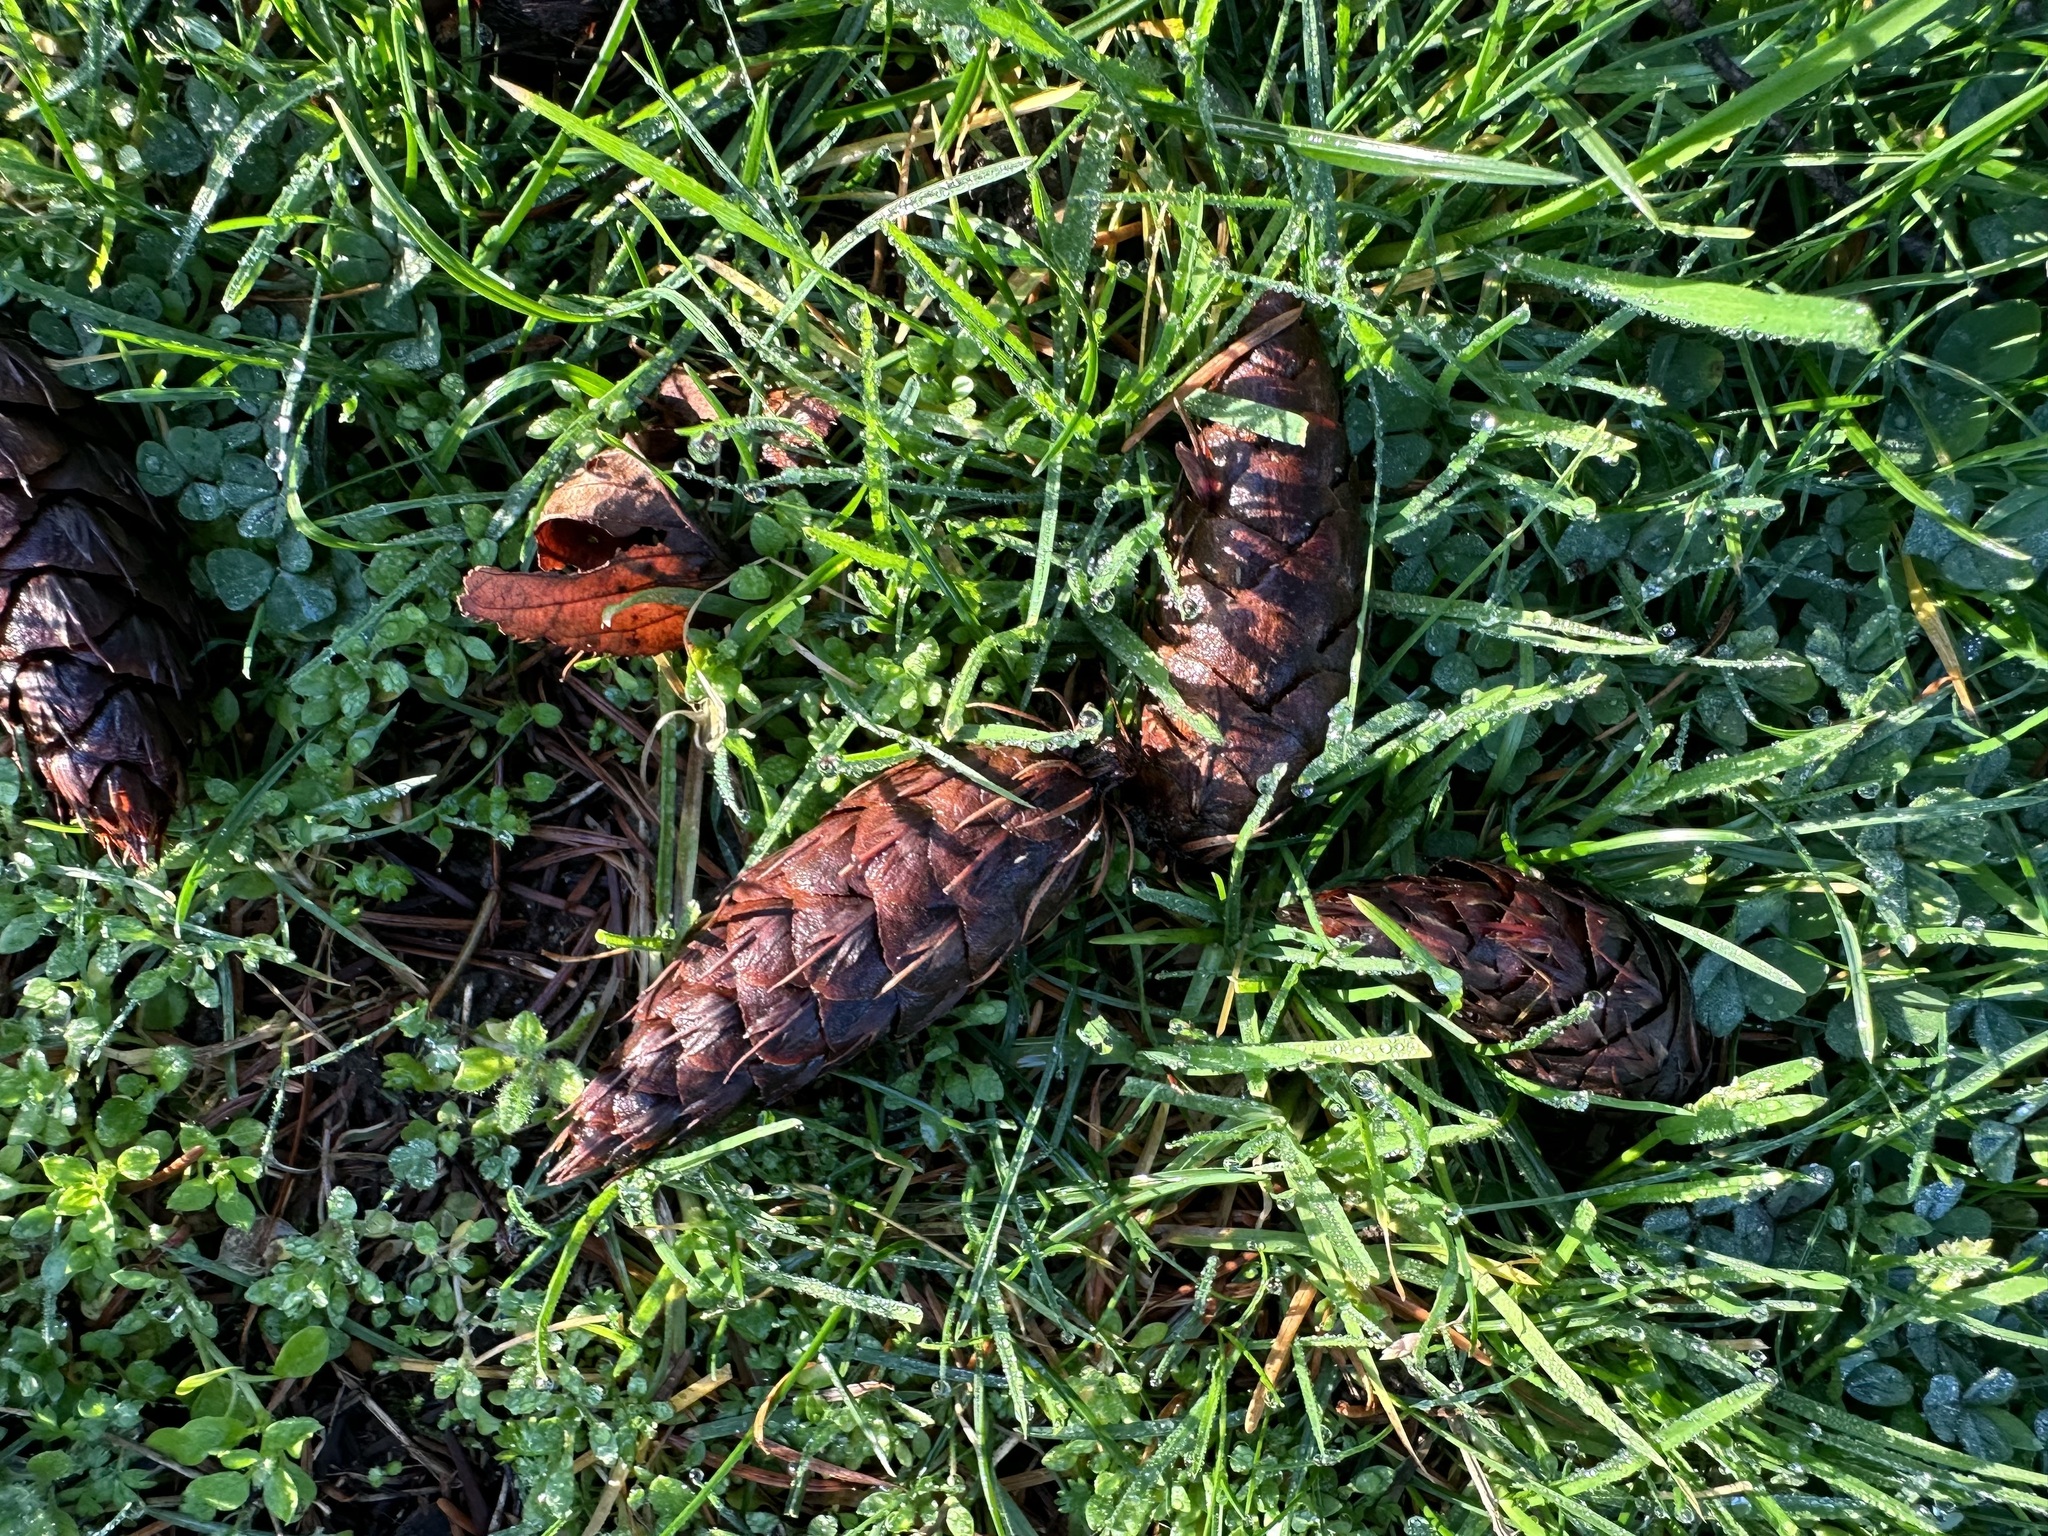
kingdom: Plantae
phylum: Tracheophyta
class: Pinopsida
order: Pinales
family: Pinaceae
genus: Pseudotsuga
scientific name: Pseudotsuga menziesii
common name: Douglas fir
